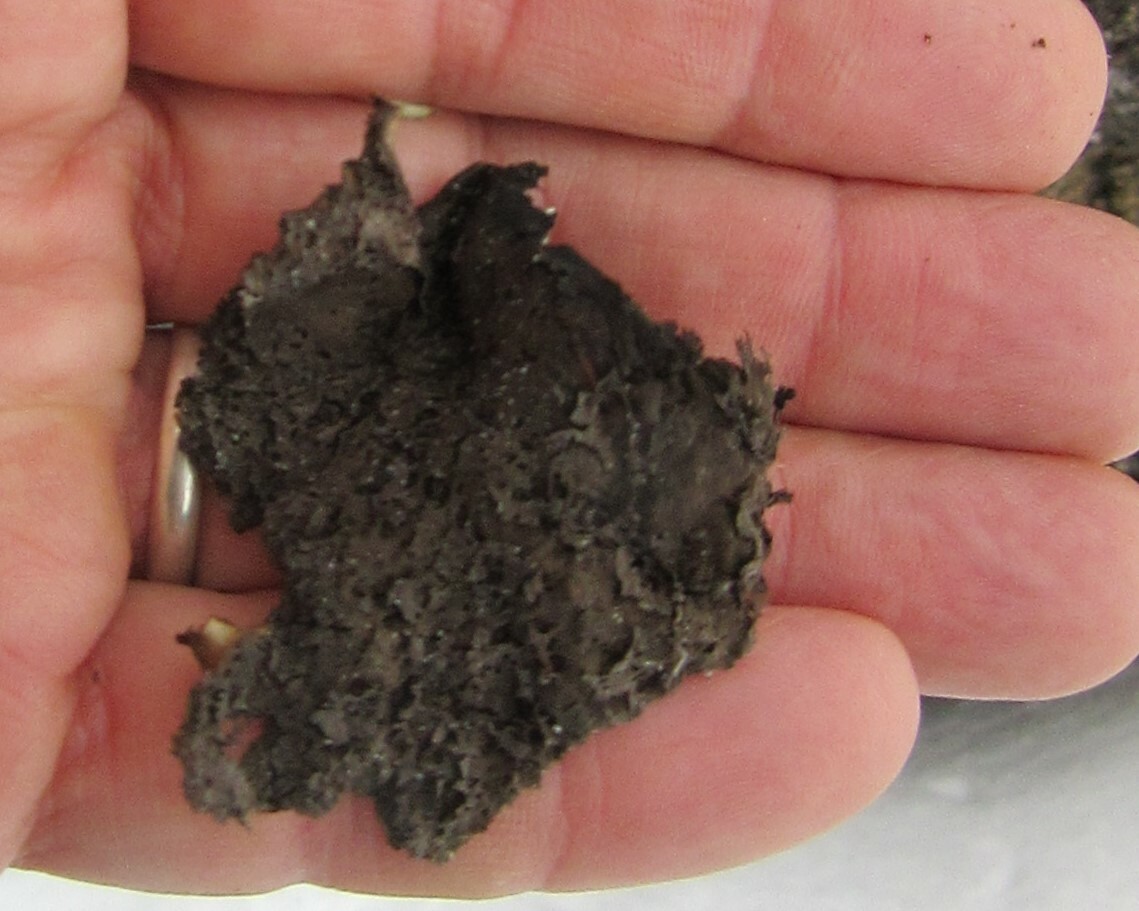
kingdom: Fungi
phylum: Ascomycota
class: Lecanoromycetes
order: Umbilicariales
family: Umbilicariaceae
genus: Umbilicaria
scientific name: Umbilicaria muhlenbergii
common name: Lesser rocktripe
